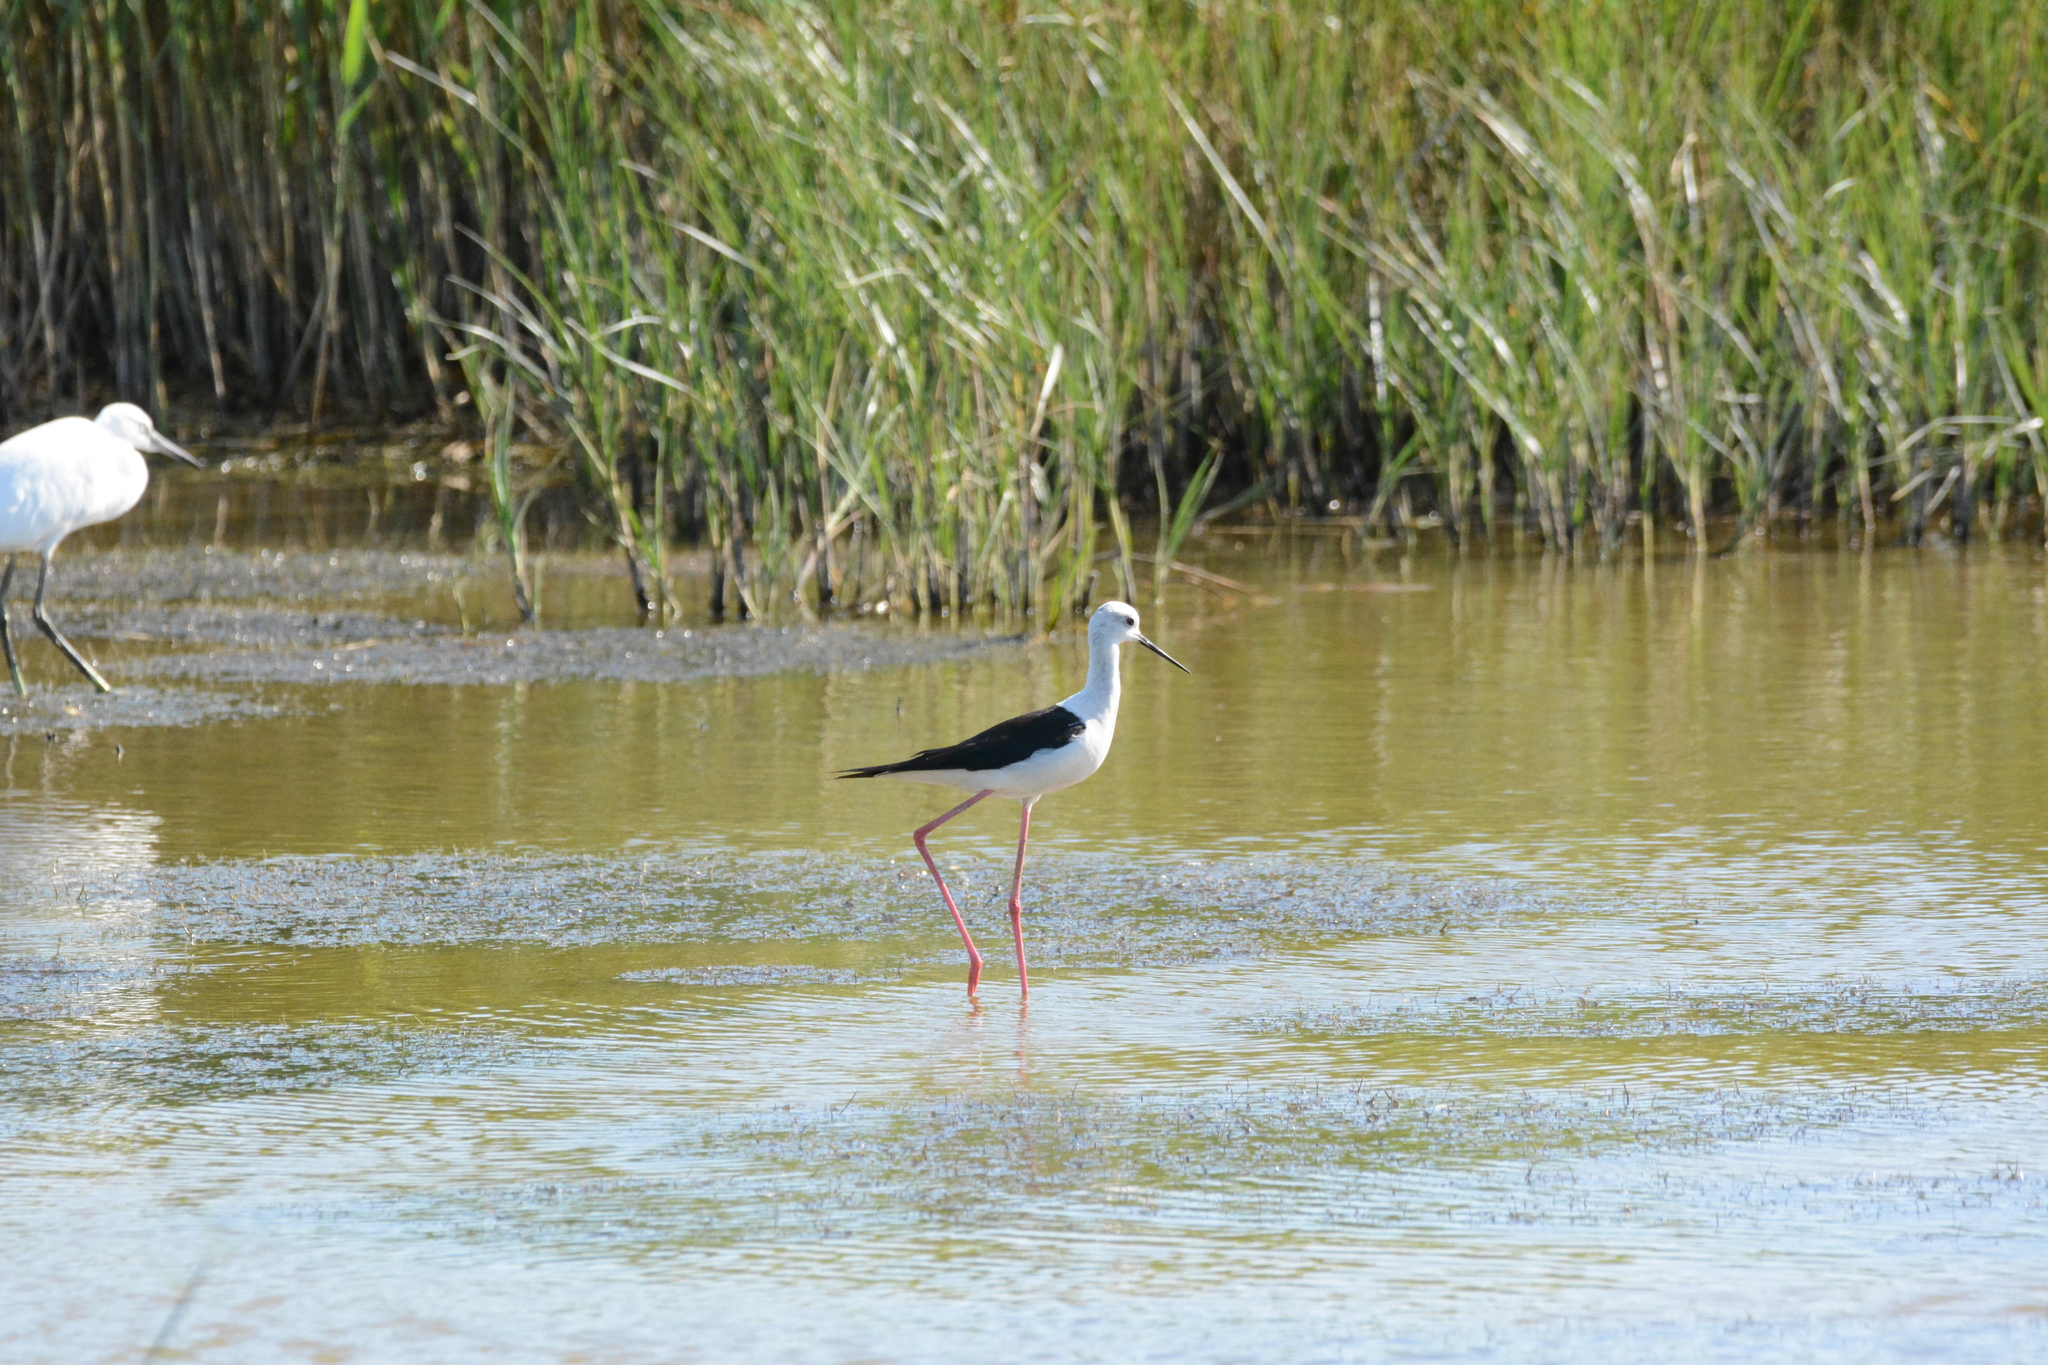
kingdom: Animalia
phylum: Chordata
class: Aves
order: Charadriiformes
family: Recurvirostridae
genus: Himantopus
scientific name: Himantopus himantopus
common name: Black-winged stilt
